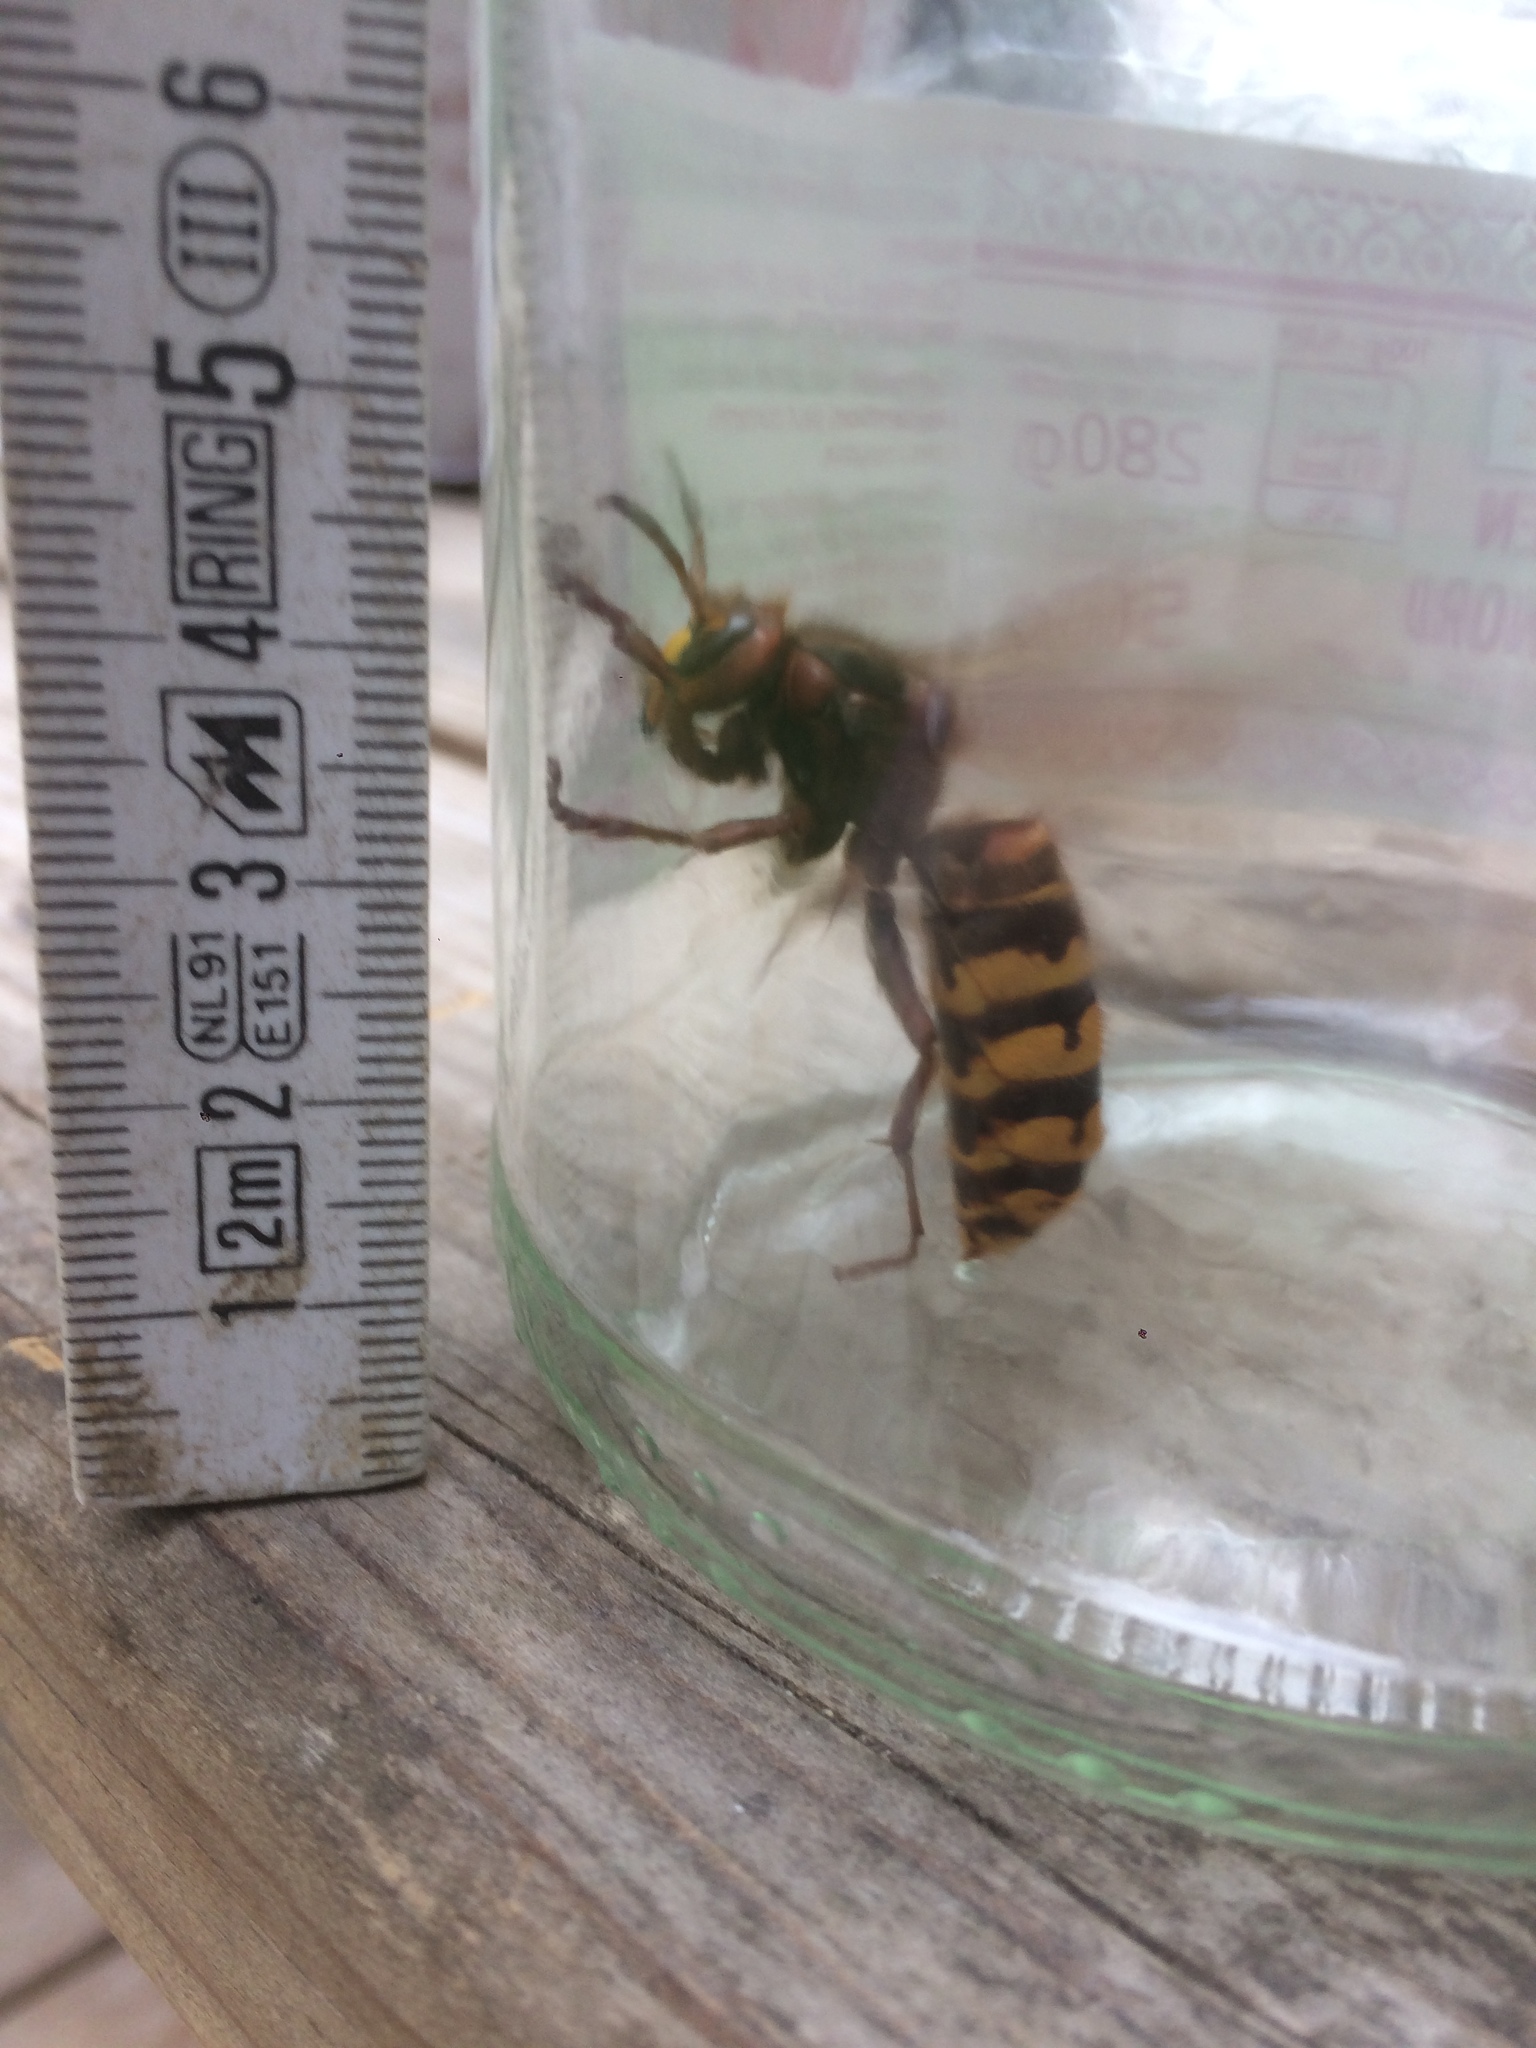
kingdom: Animalia
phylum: Arthropoda
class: Insecta
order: Hymenoptera
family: Vespidae
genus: Vespa
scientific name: Vespa crabro
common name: Hornet
